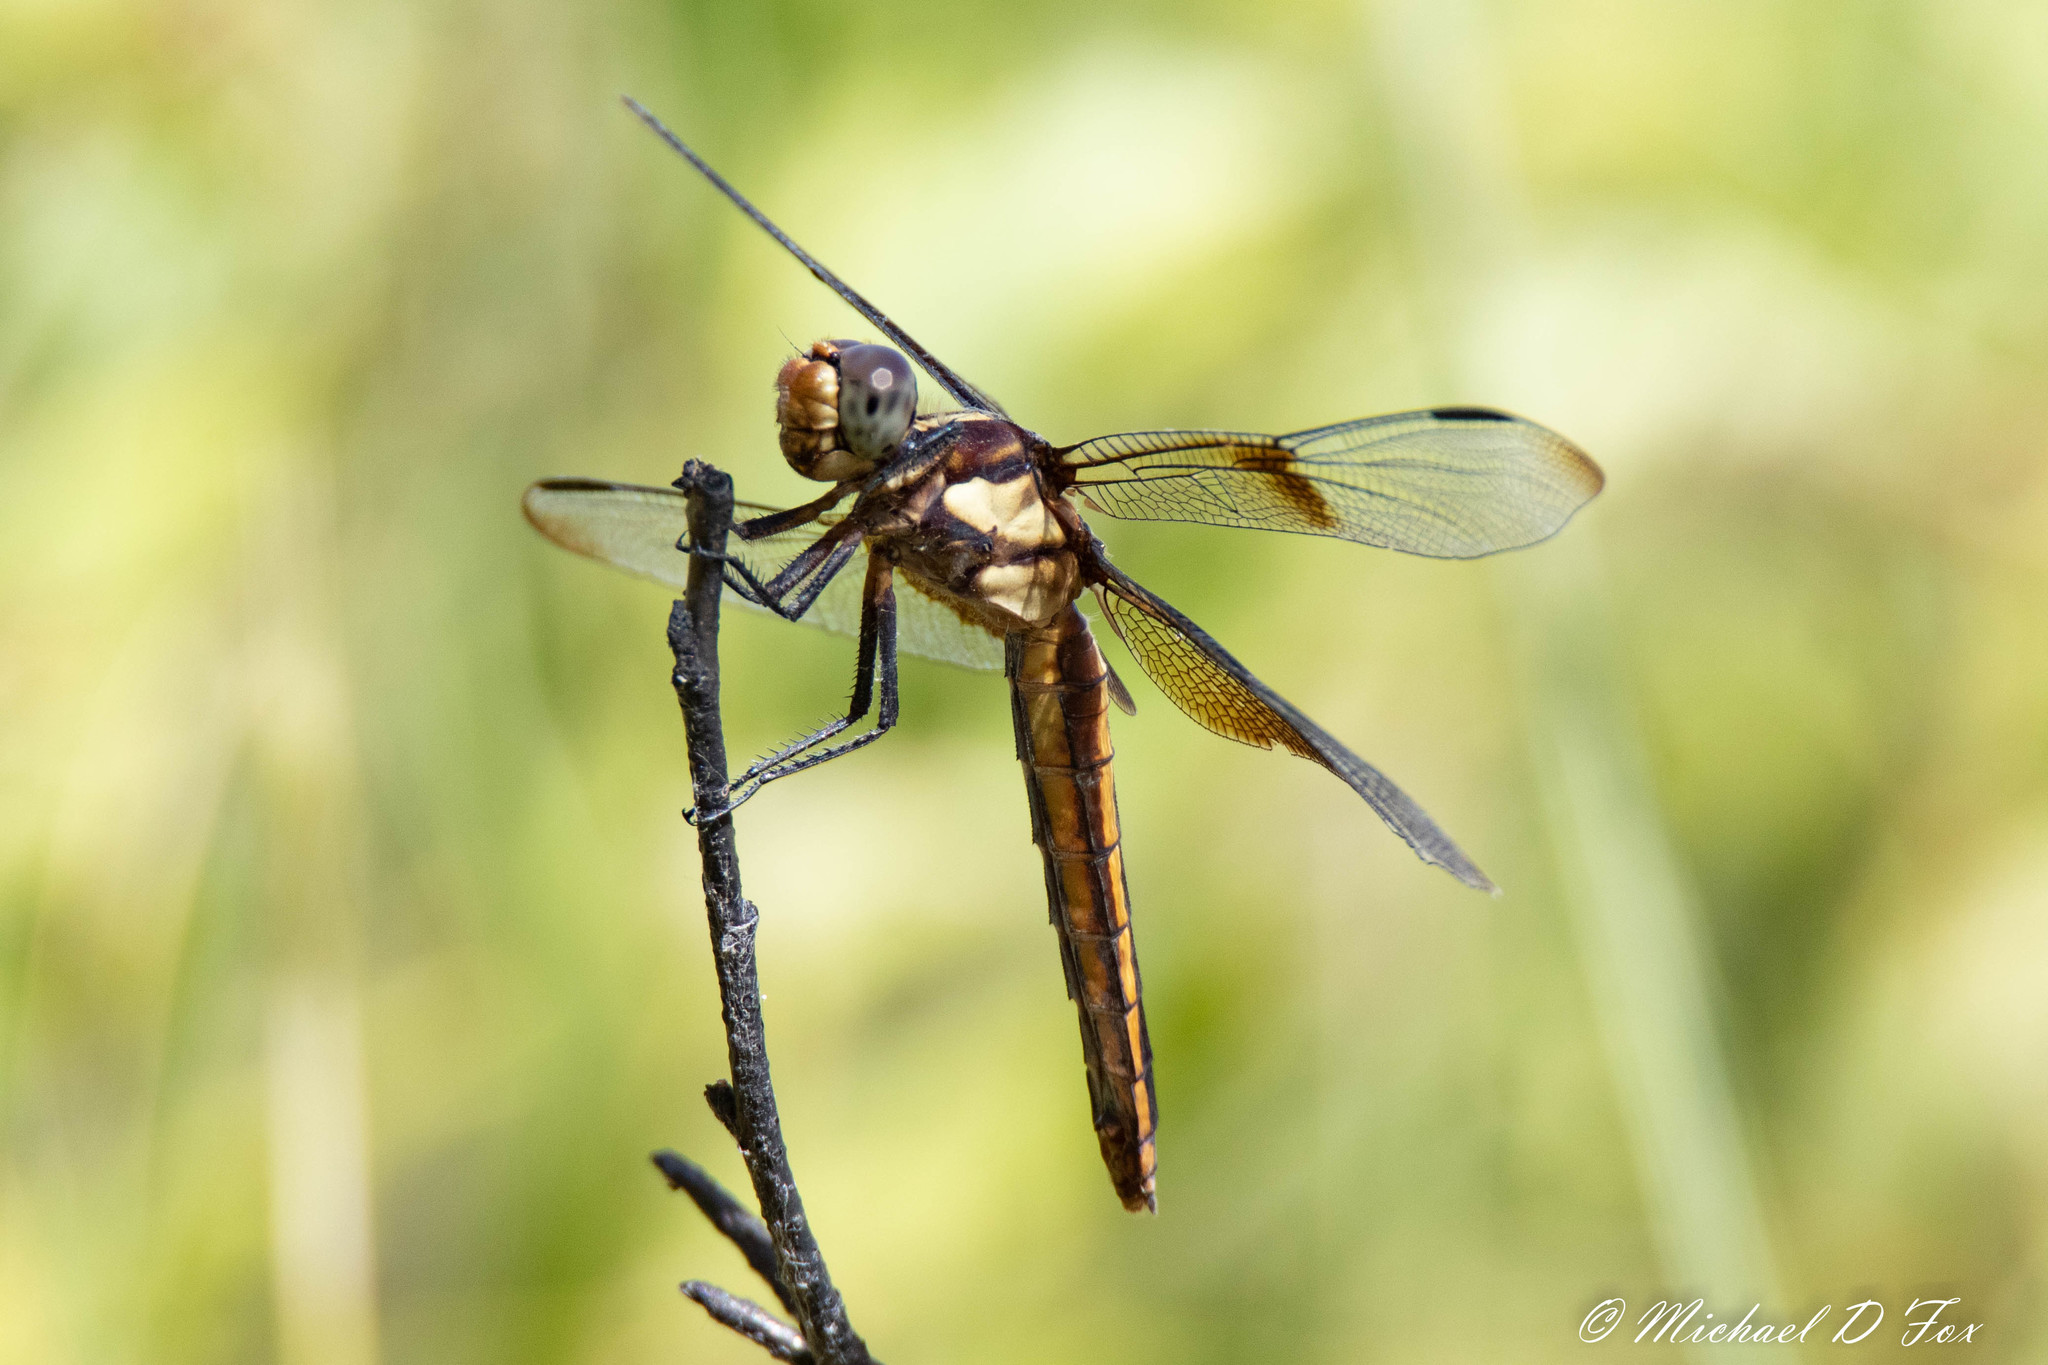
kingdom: Animalia
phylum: Arthropoda
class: Insecta
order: Odonata
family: Libellulidae
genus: Libellula
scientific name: Libellula luctuosa
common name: Widow skimmer
